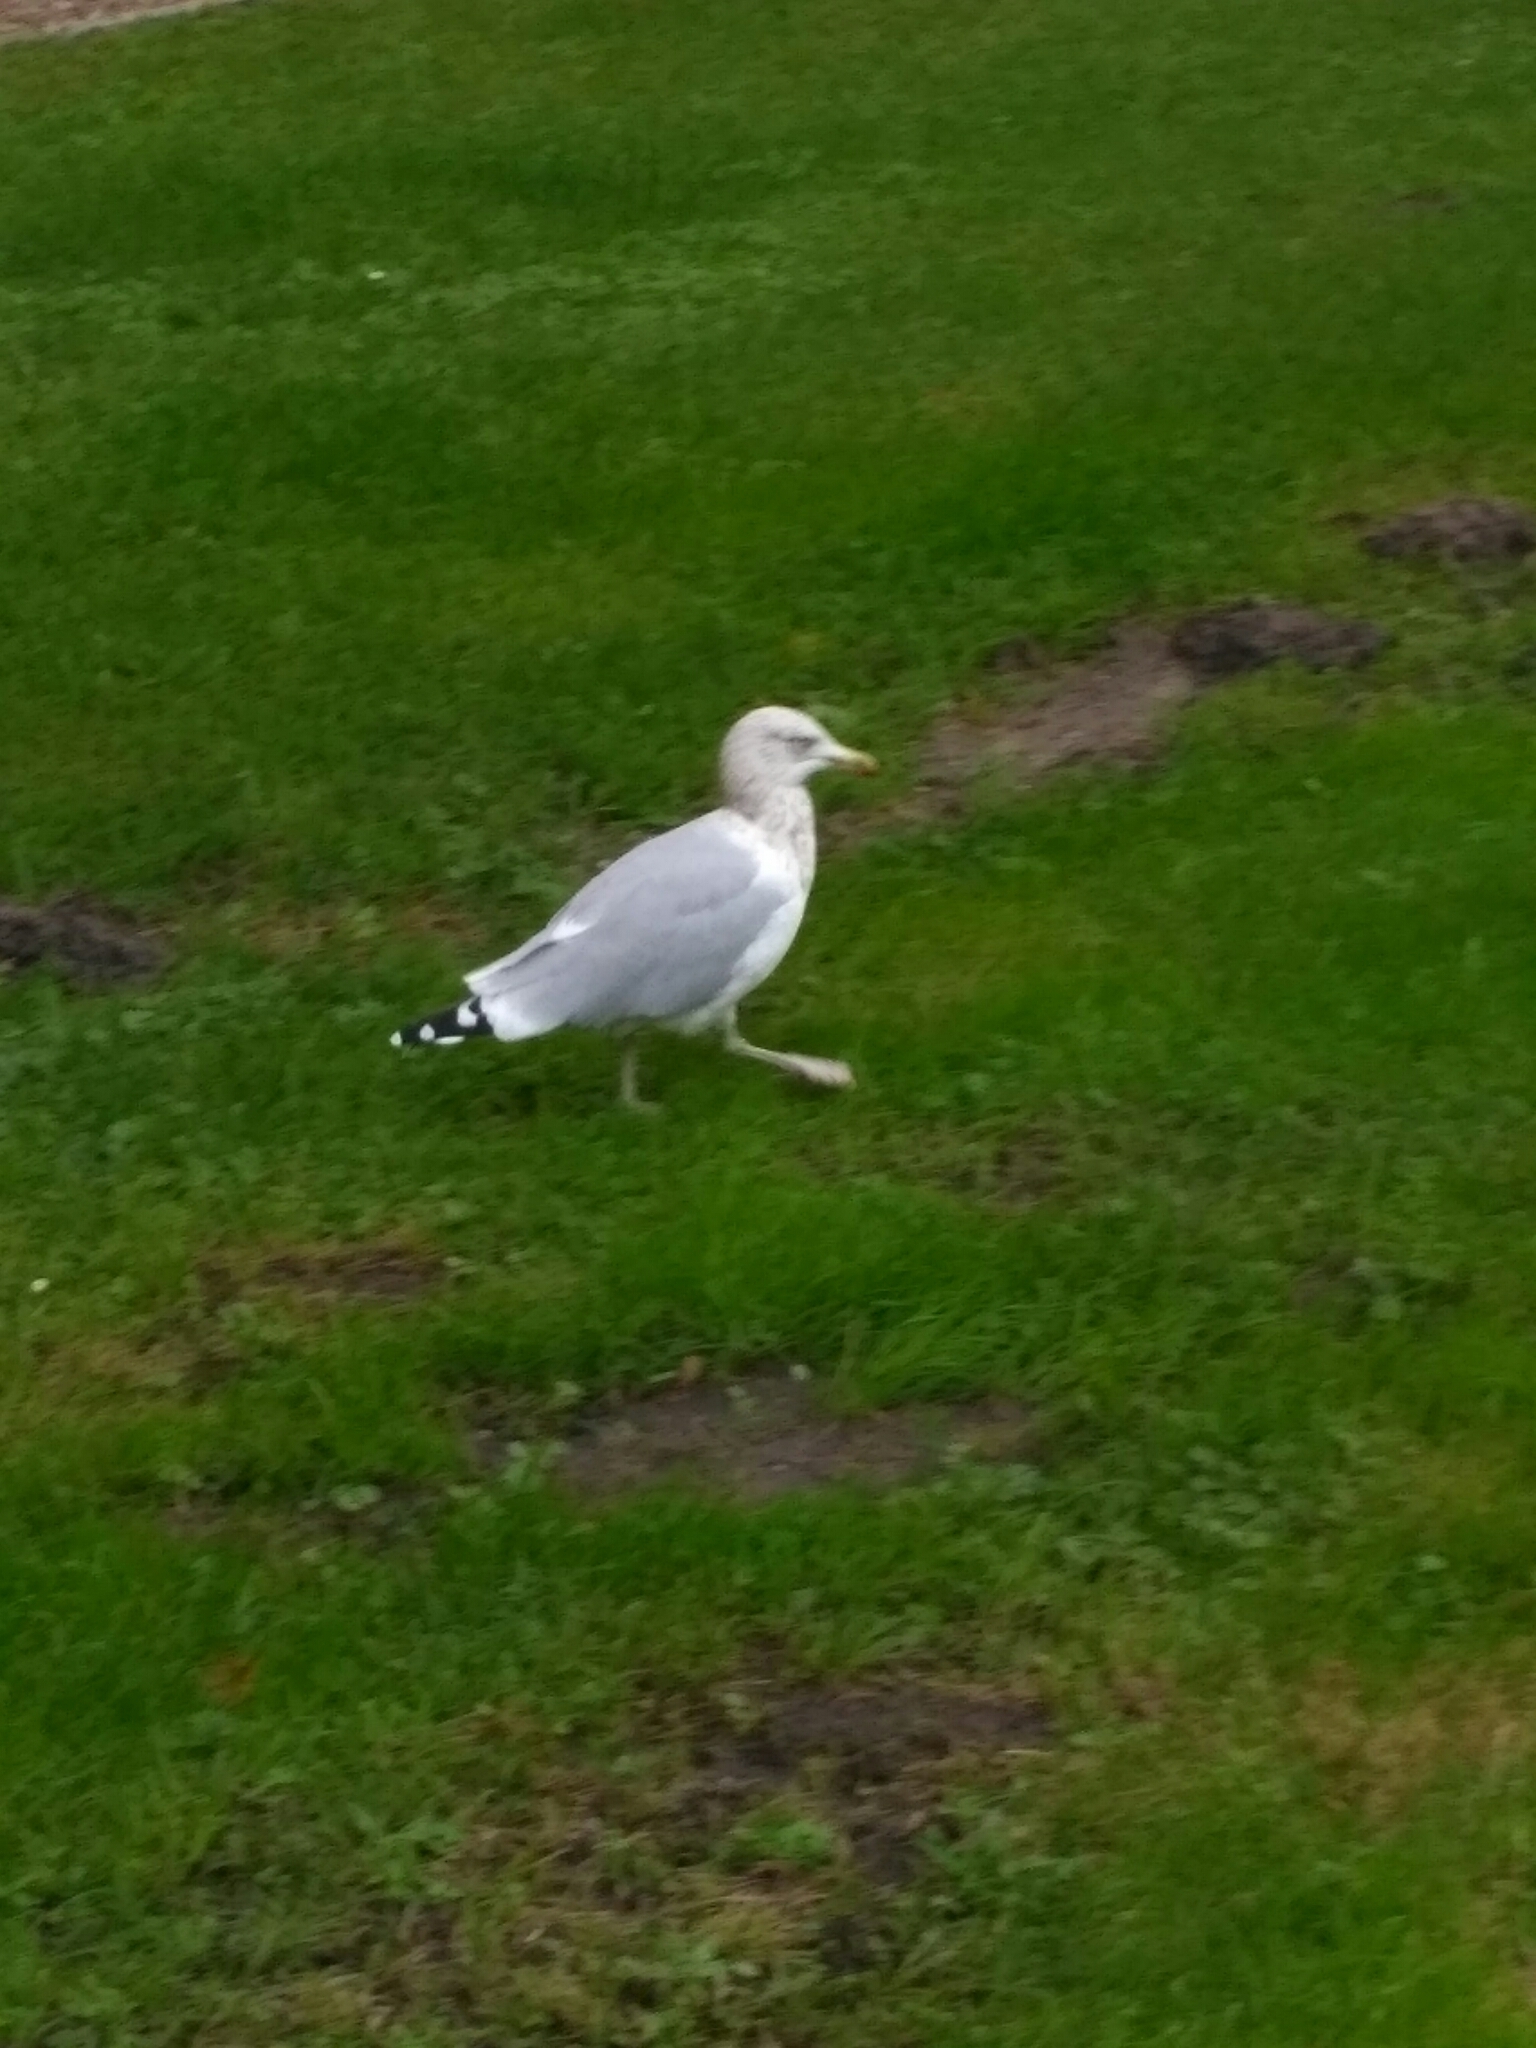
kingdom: Animalia
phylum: Chordata
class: Aves
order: Charadriiformes
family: Laridae
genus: Larus
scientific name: Larus argentatus
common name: Herring gull
